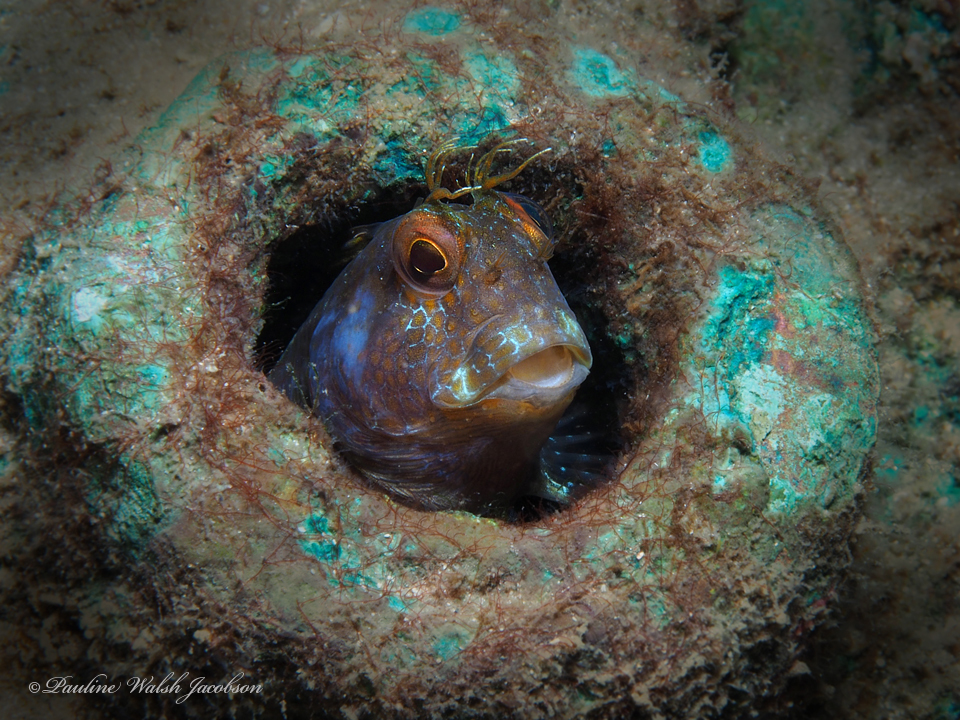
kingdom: Animalia
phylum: Chordata
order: Perciformes
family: Blenniidae
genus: Parablennius
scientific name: Parablennius marmoreus
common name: Seaweed blenny
